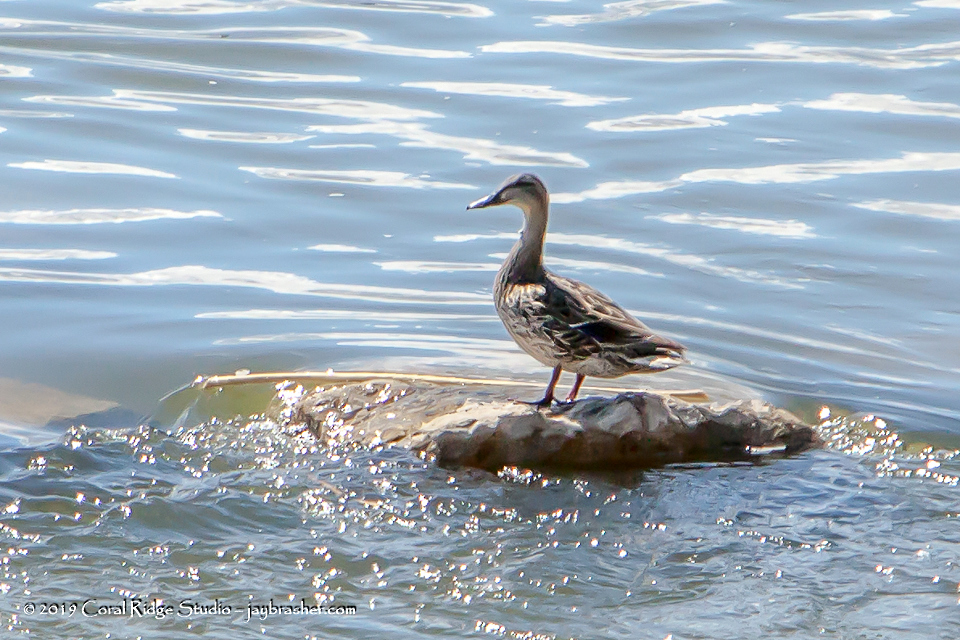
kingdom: Animalia
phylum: Chordata
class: Aves
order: Anseriformes
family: Anatidae
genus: Anas
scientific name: Anas platyrhynchos
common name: Mallard
